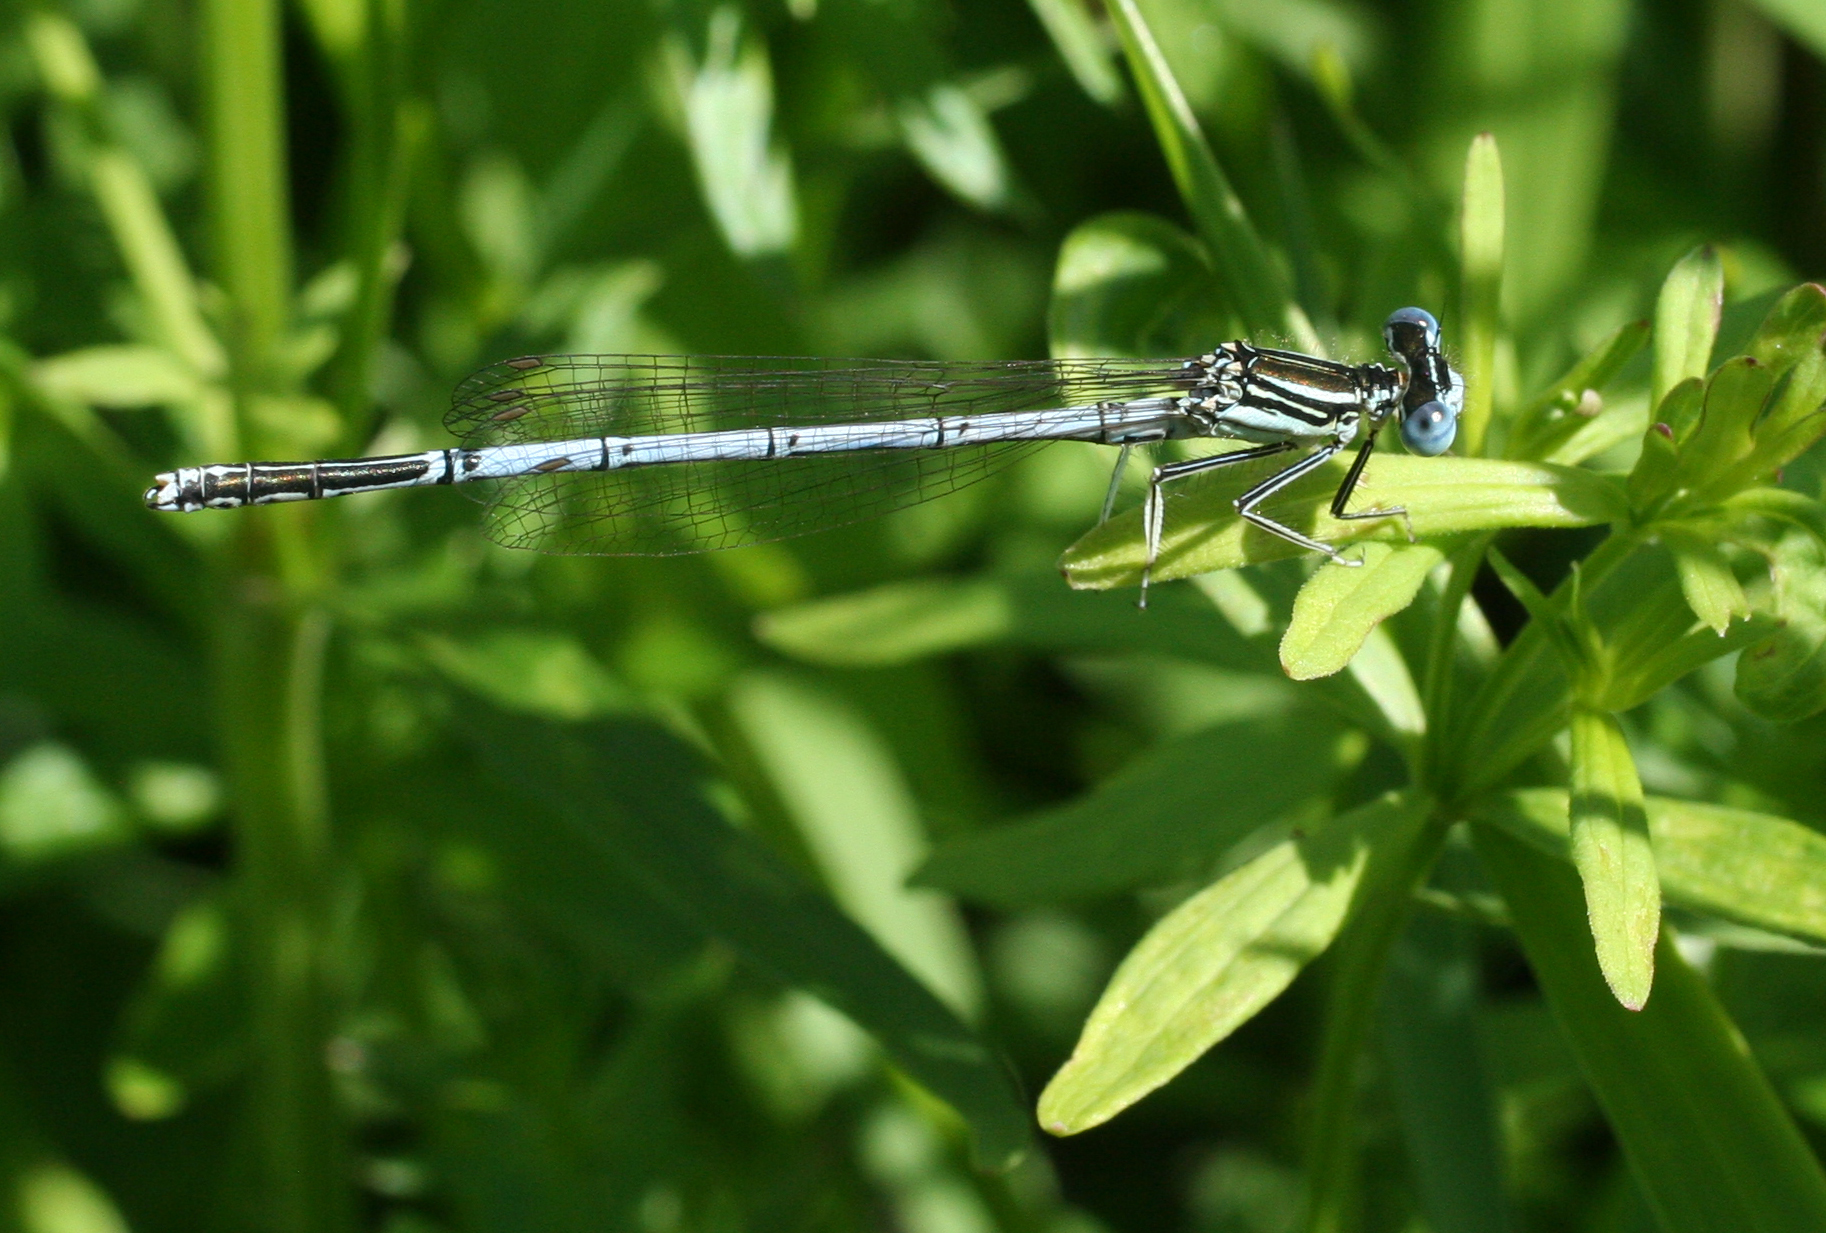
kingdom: Animalia
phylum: Arthropoda
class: Insecta
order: Odonata
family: Platycnemididae
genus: Platycnemis
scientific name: Platycnemis pennipes
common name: White-legged damselfly
